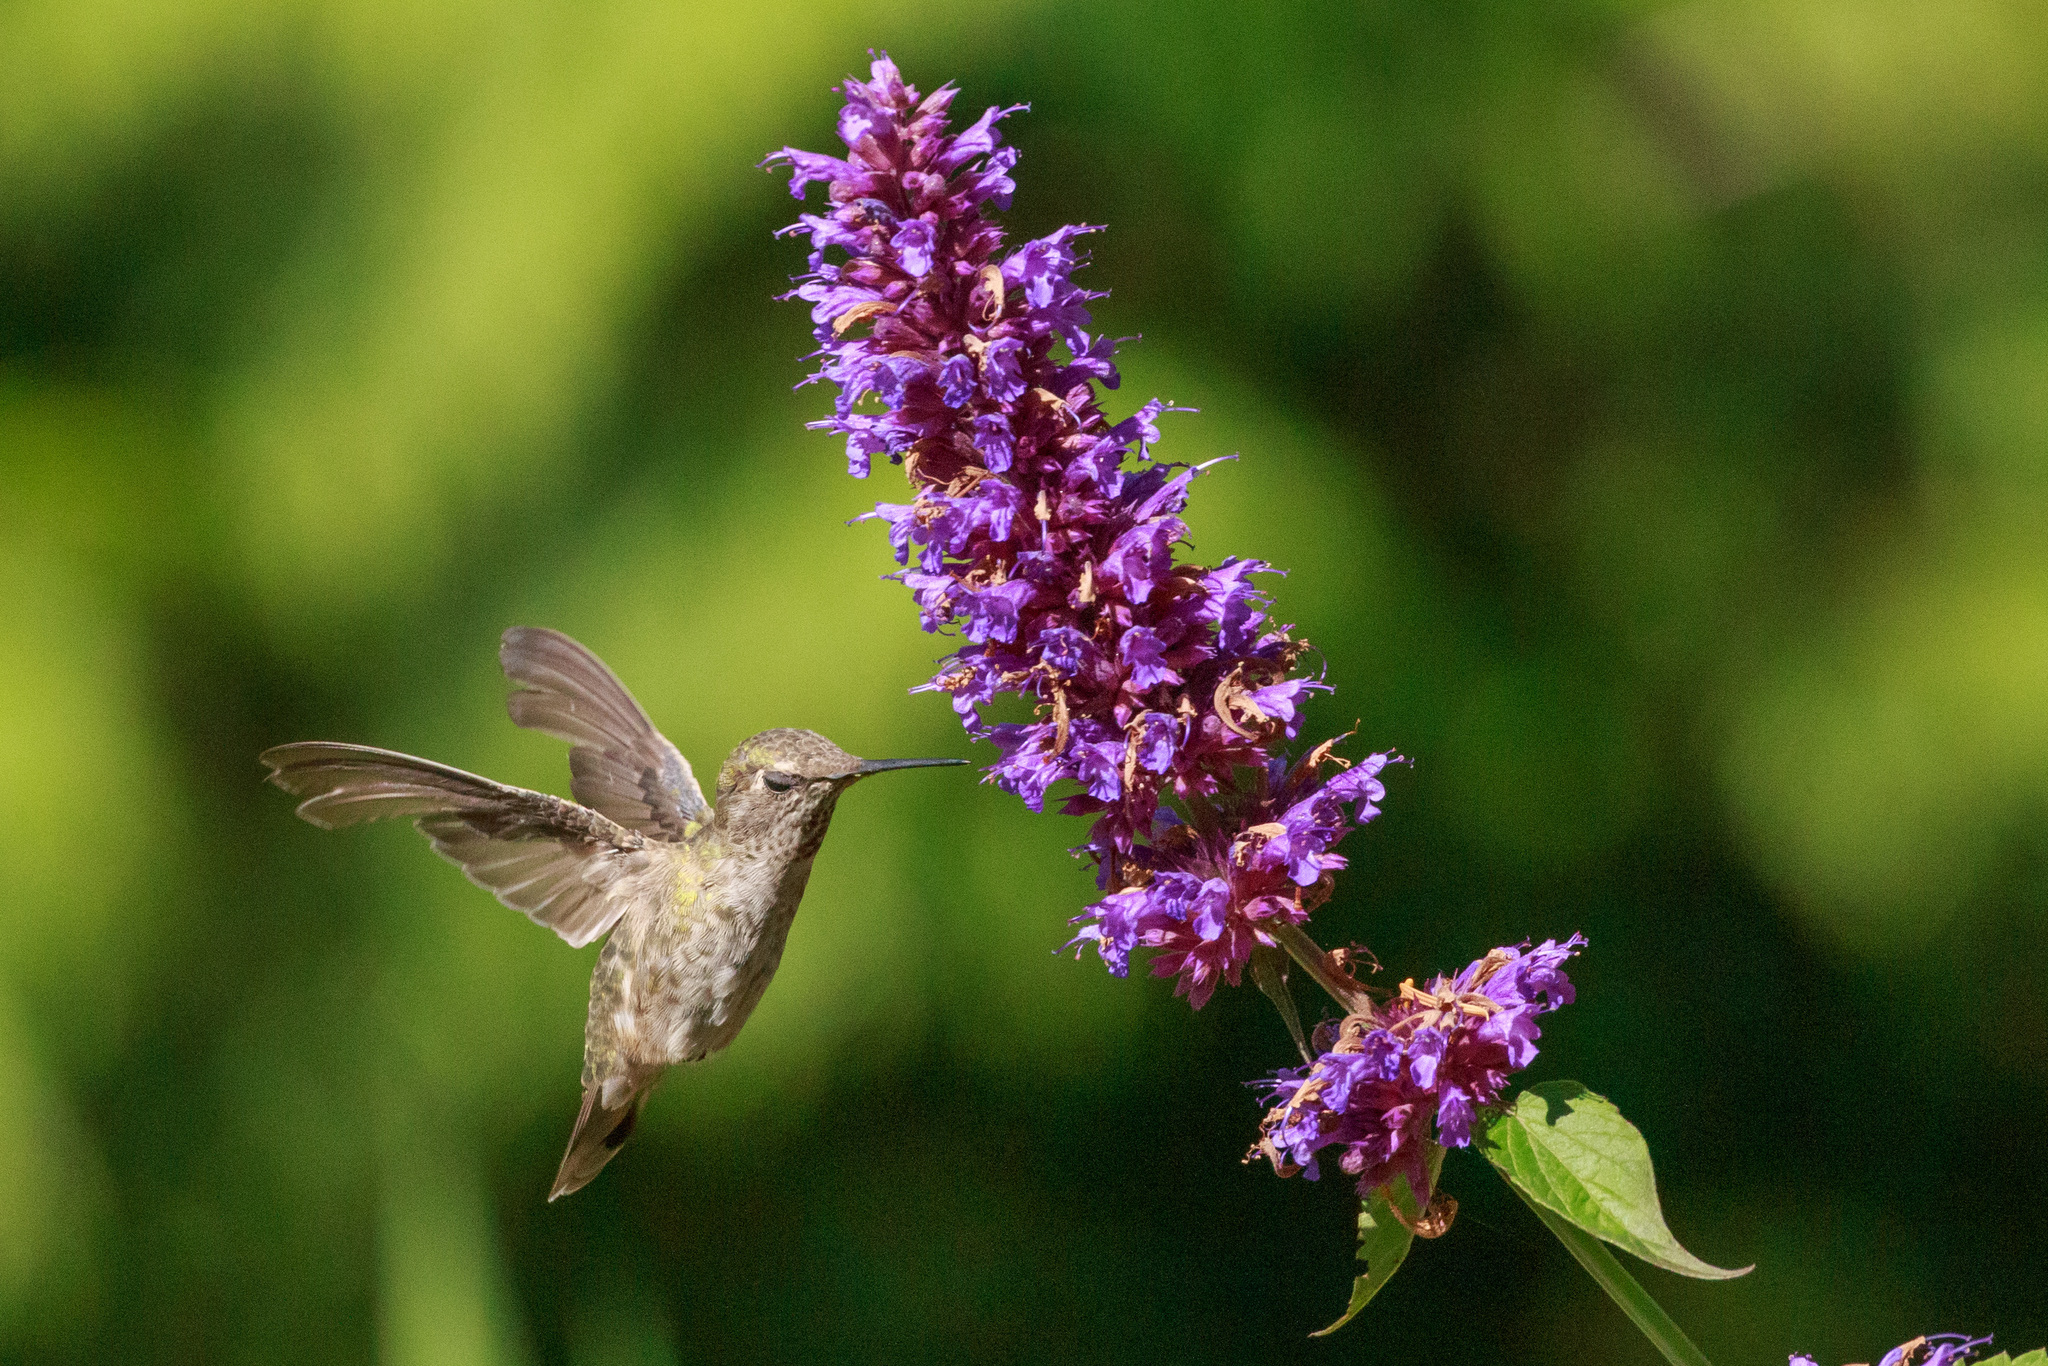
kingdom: Animalia
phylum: Chordata
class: Aves
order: Apodiformes
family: Trochilidae
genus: Calypte
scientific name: Calypte anna
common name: Anna's hummingbird
